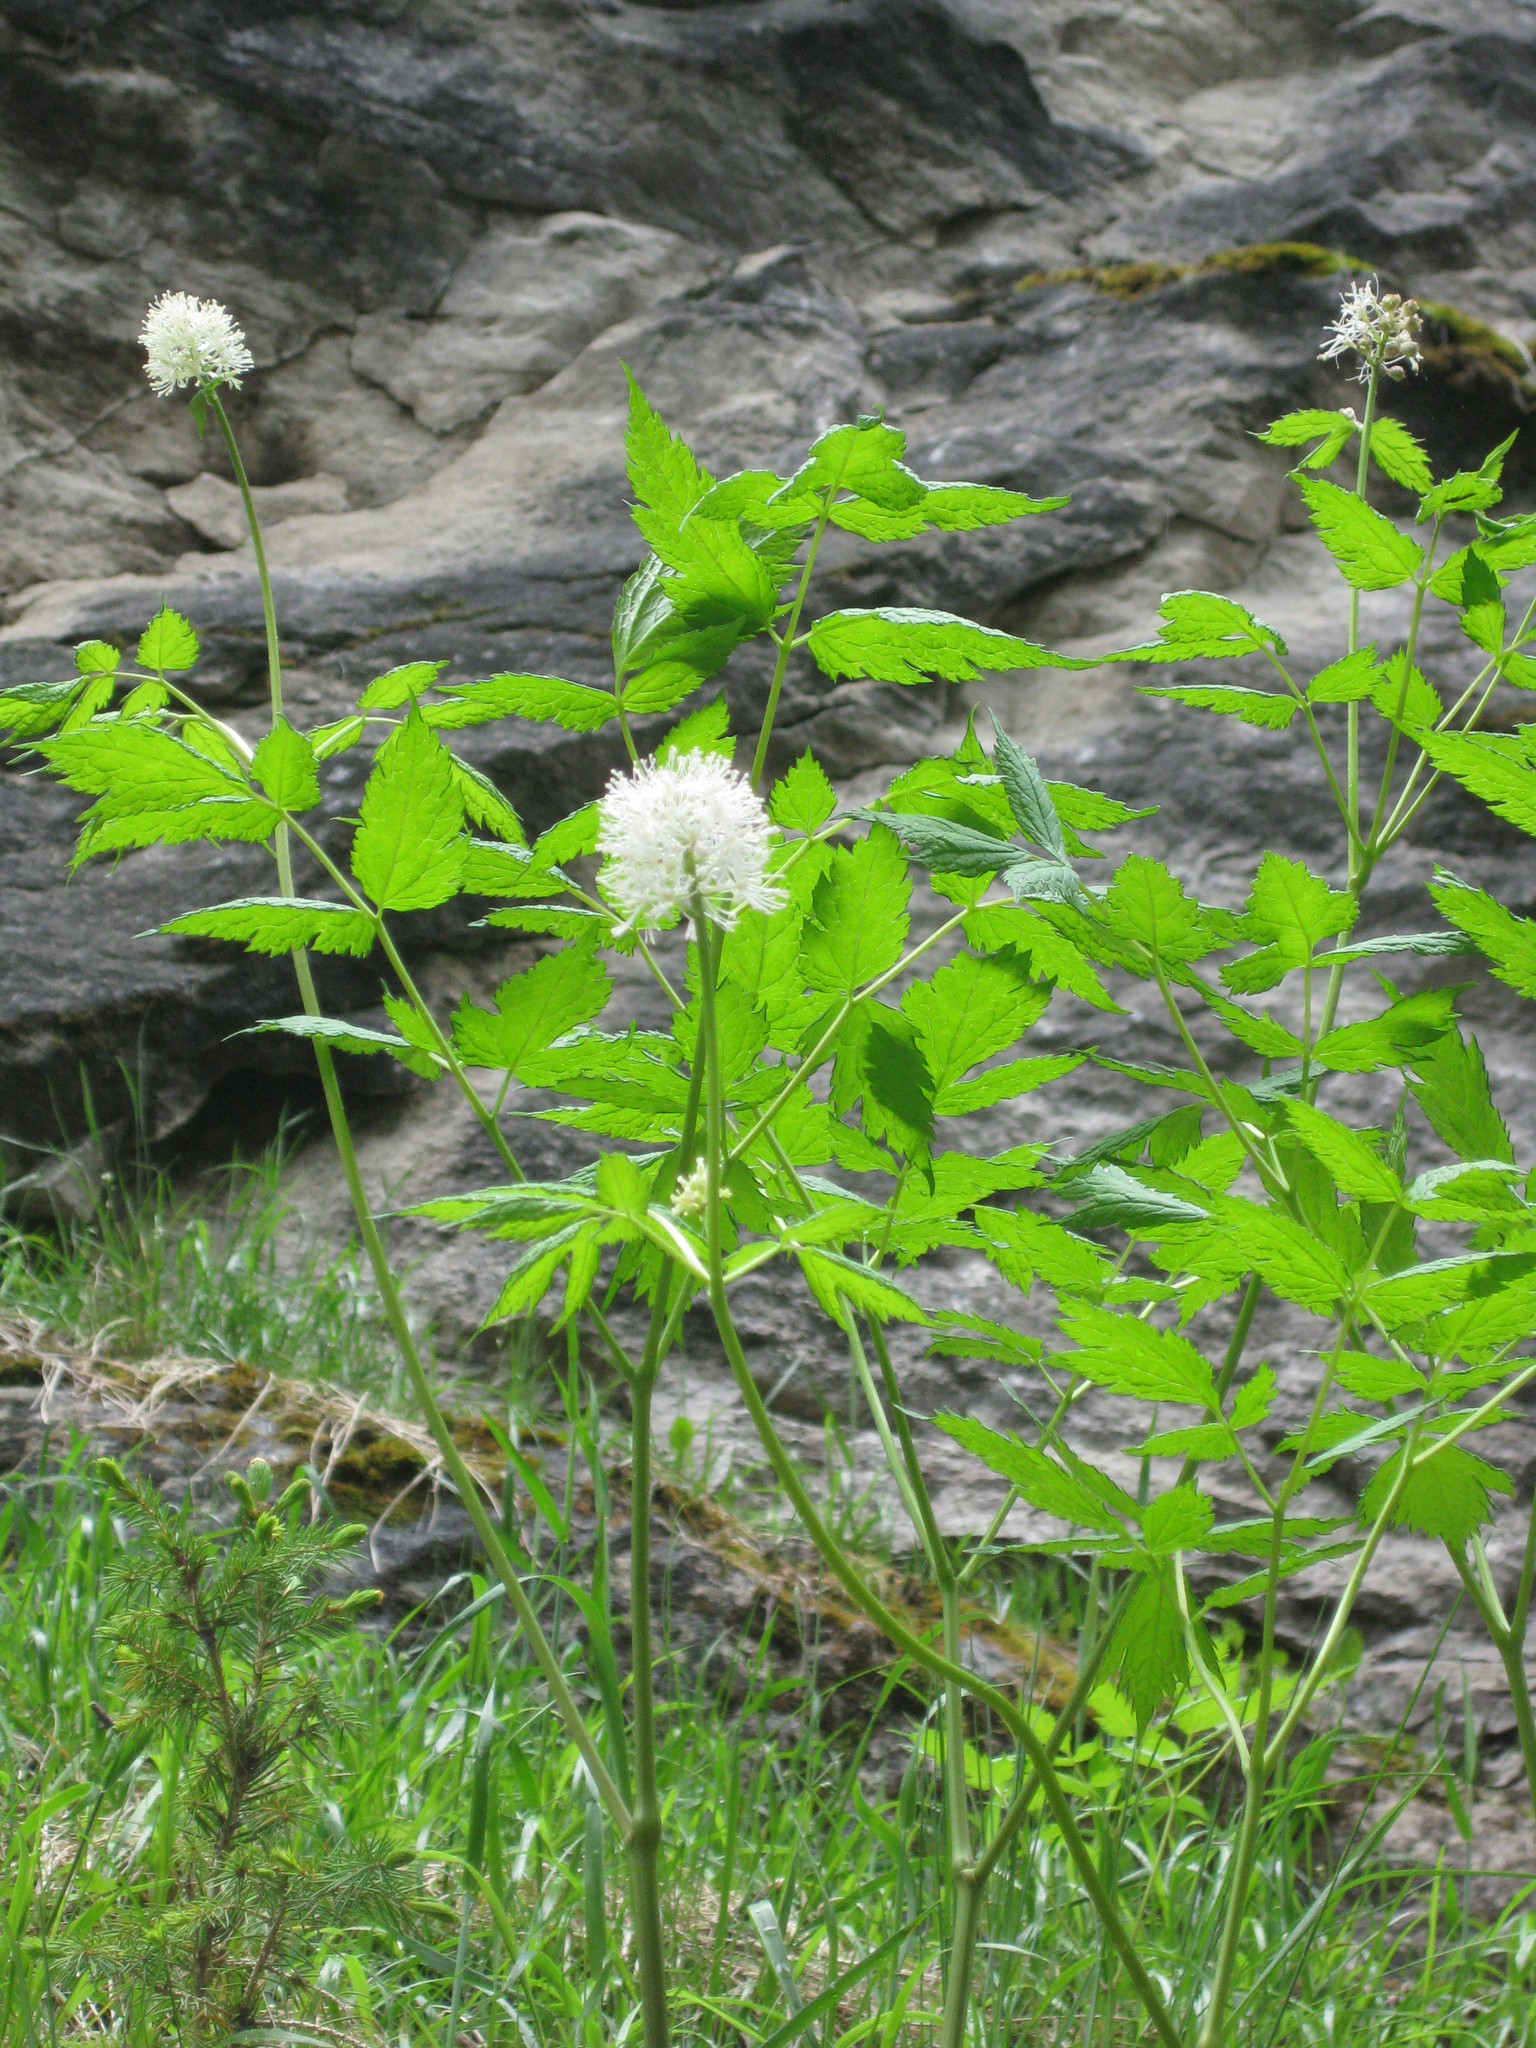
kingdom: Plantae
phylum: Tracheophyta
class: Magnoliopsida
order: Ranunculales
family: Ranunculaceae
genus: Actaea
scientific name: Actaea rubra
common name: Red baneberry
